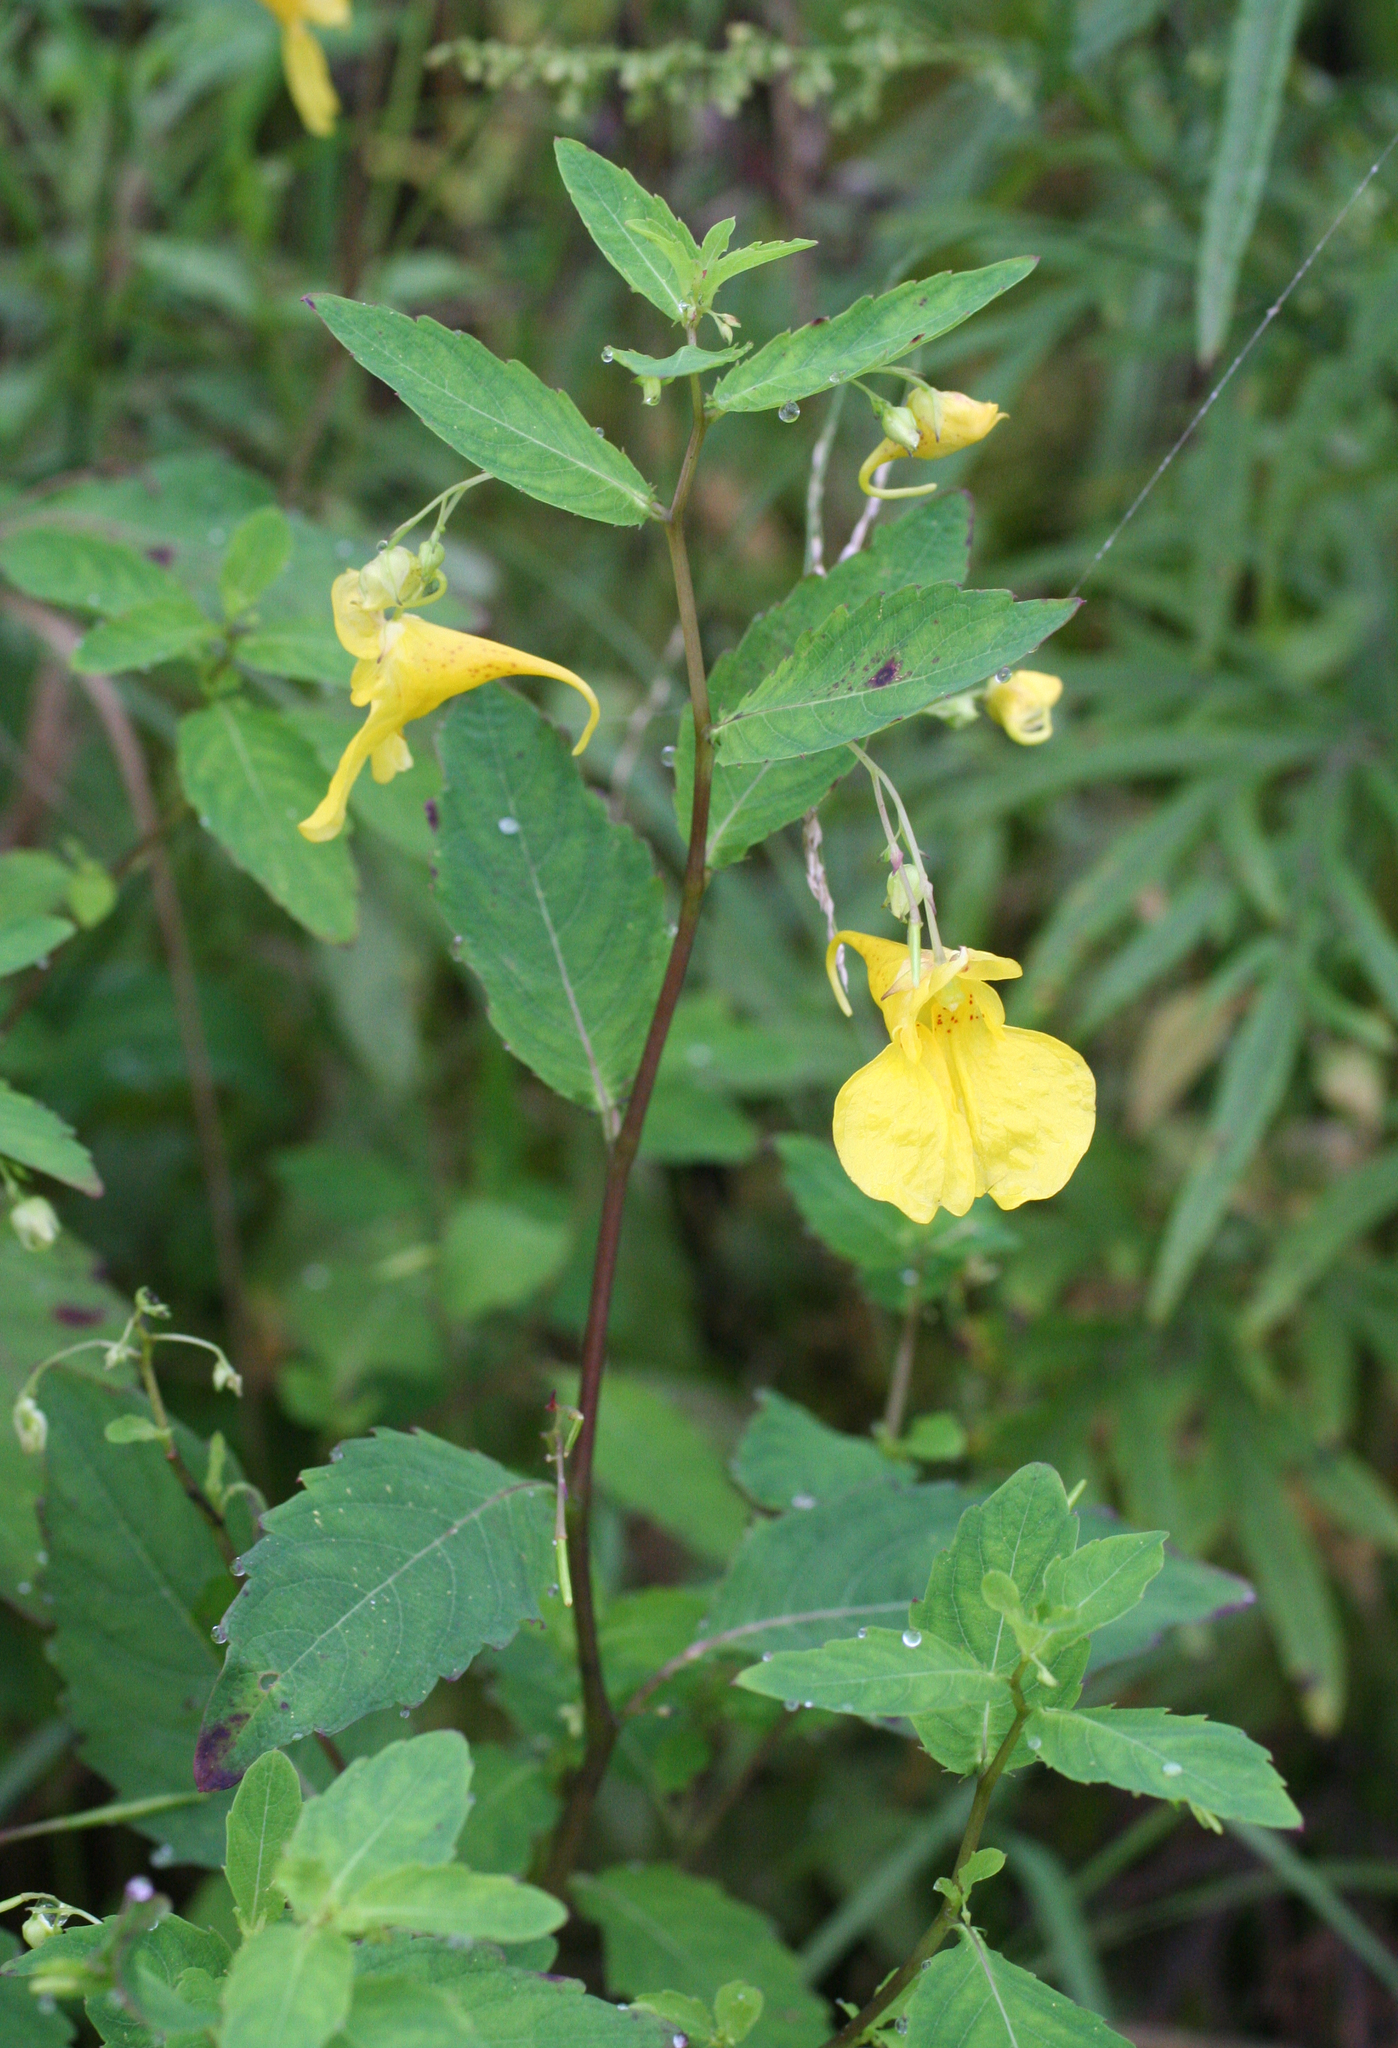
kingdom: Plantae
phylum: Tracheophyta
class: Magnoliopsida
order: Ericales
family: Balsaminaceae
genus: Impatiens
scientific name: Impatiens noli-tangere
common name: Touch-me-not balsam
